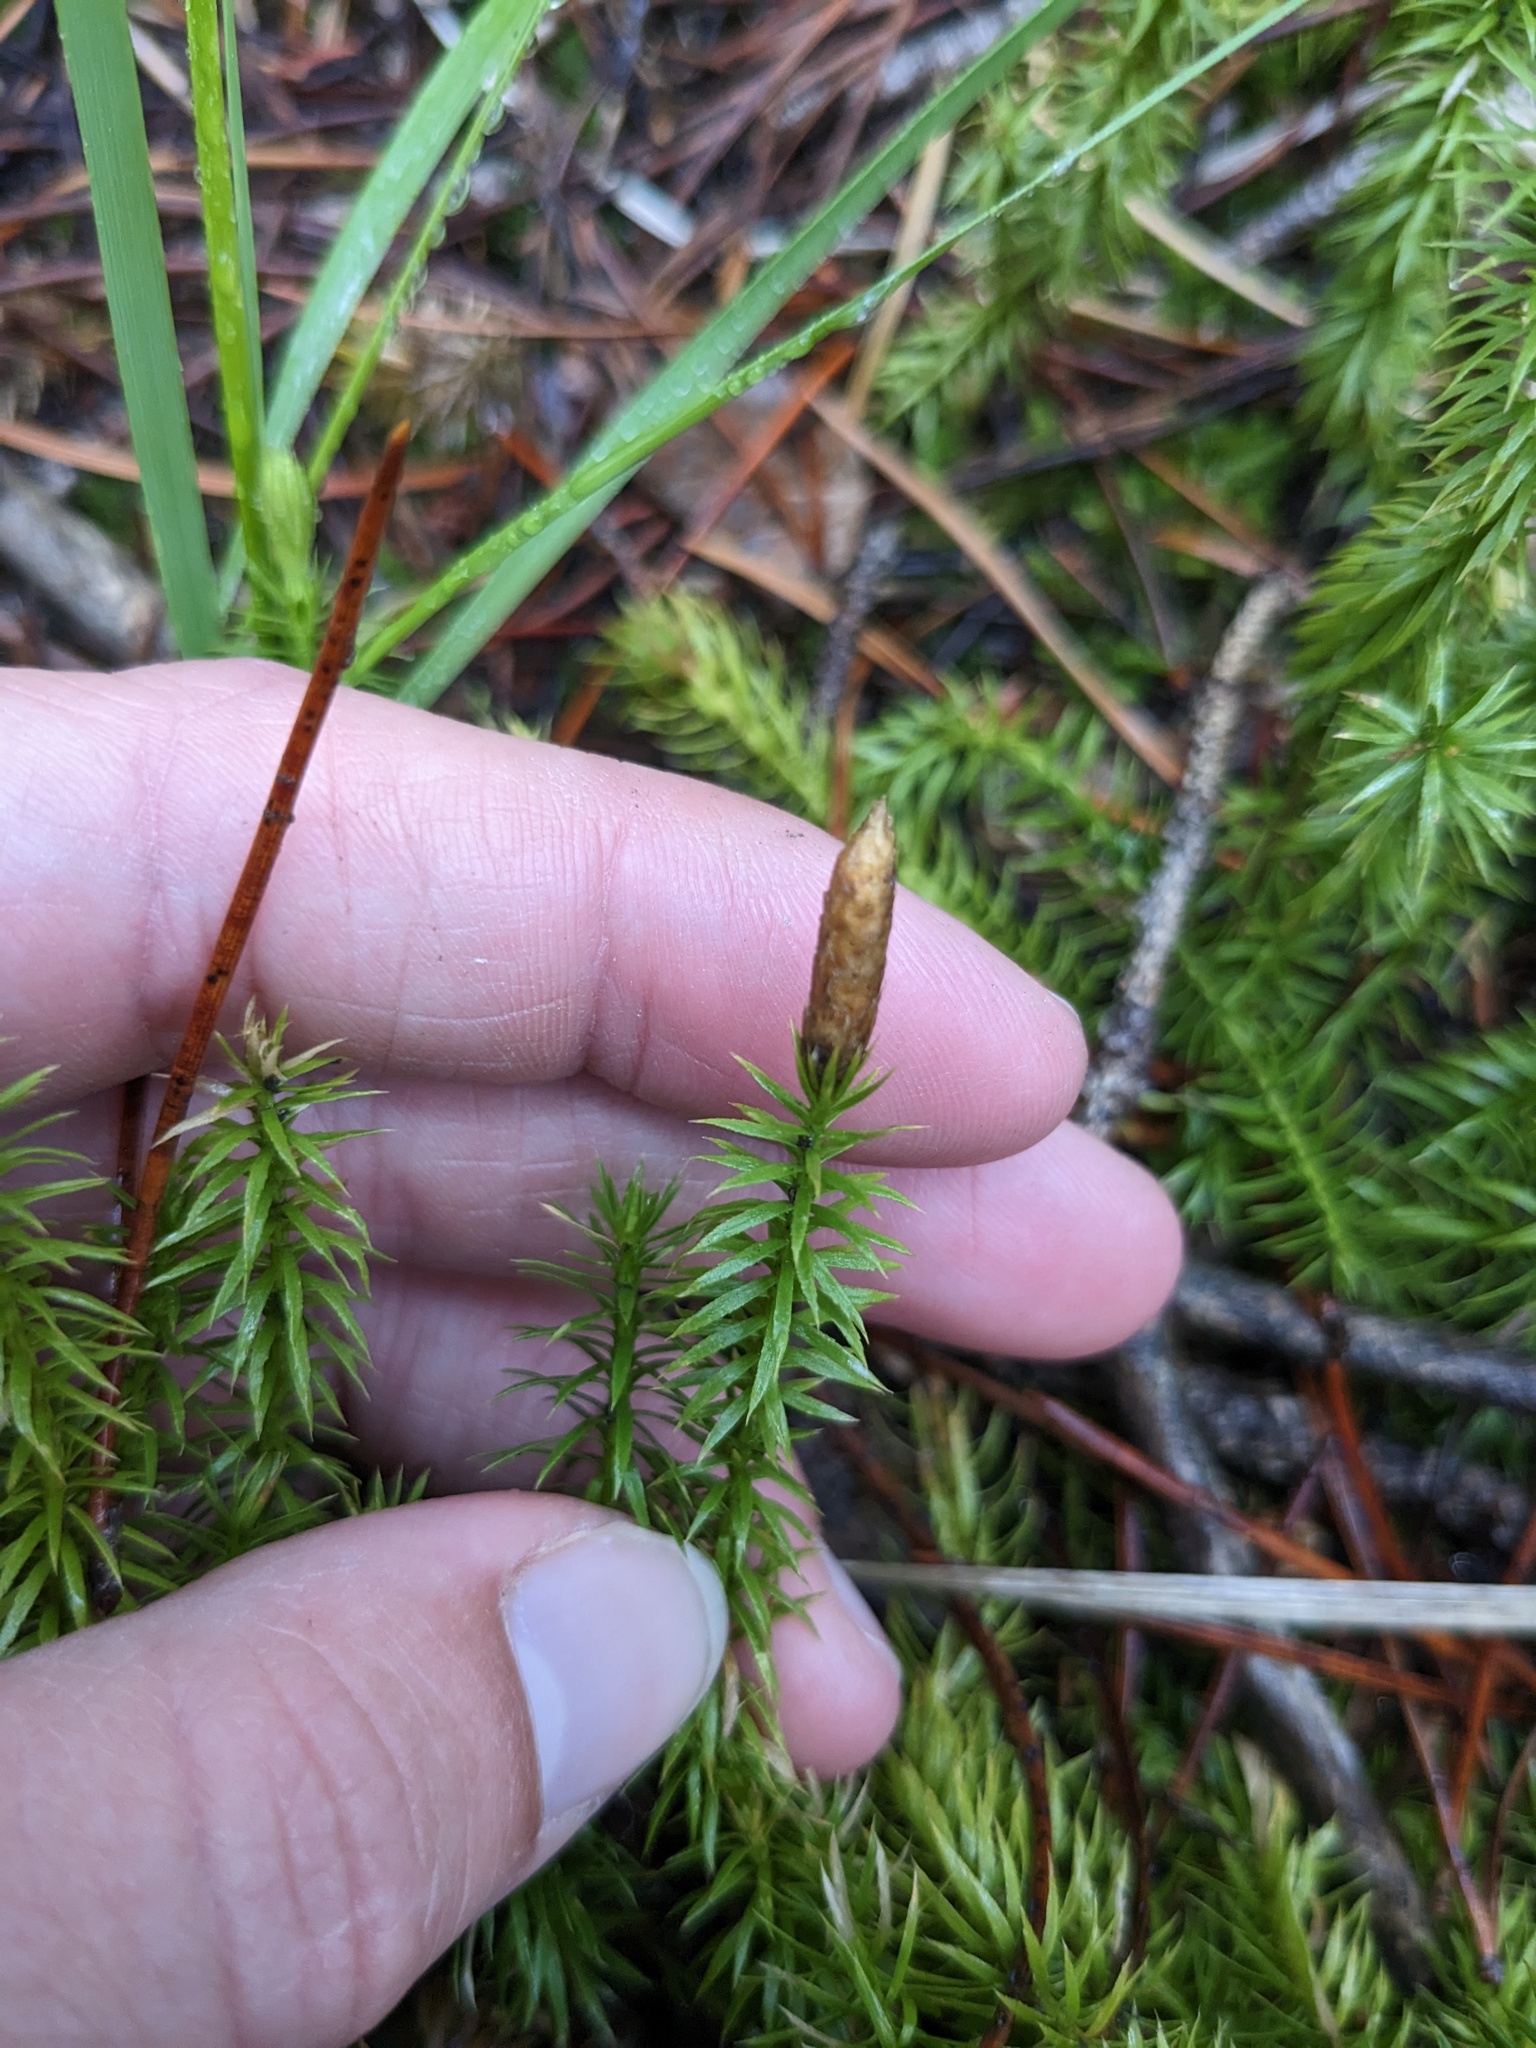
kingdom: Plantae
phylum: Tracheophyta
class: Lycopodiopsida
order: Lycopodiales
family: Lycopodiaceae
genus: Spinulum
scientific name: Spinulum annotinum
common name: Interrupted club-moss
